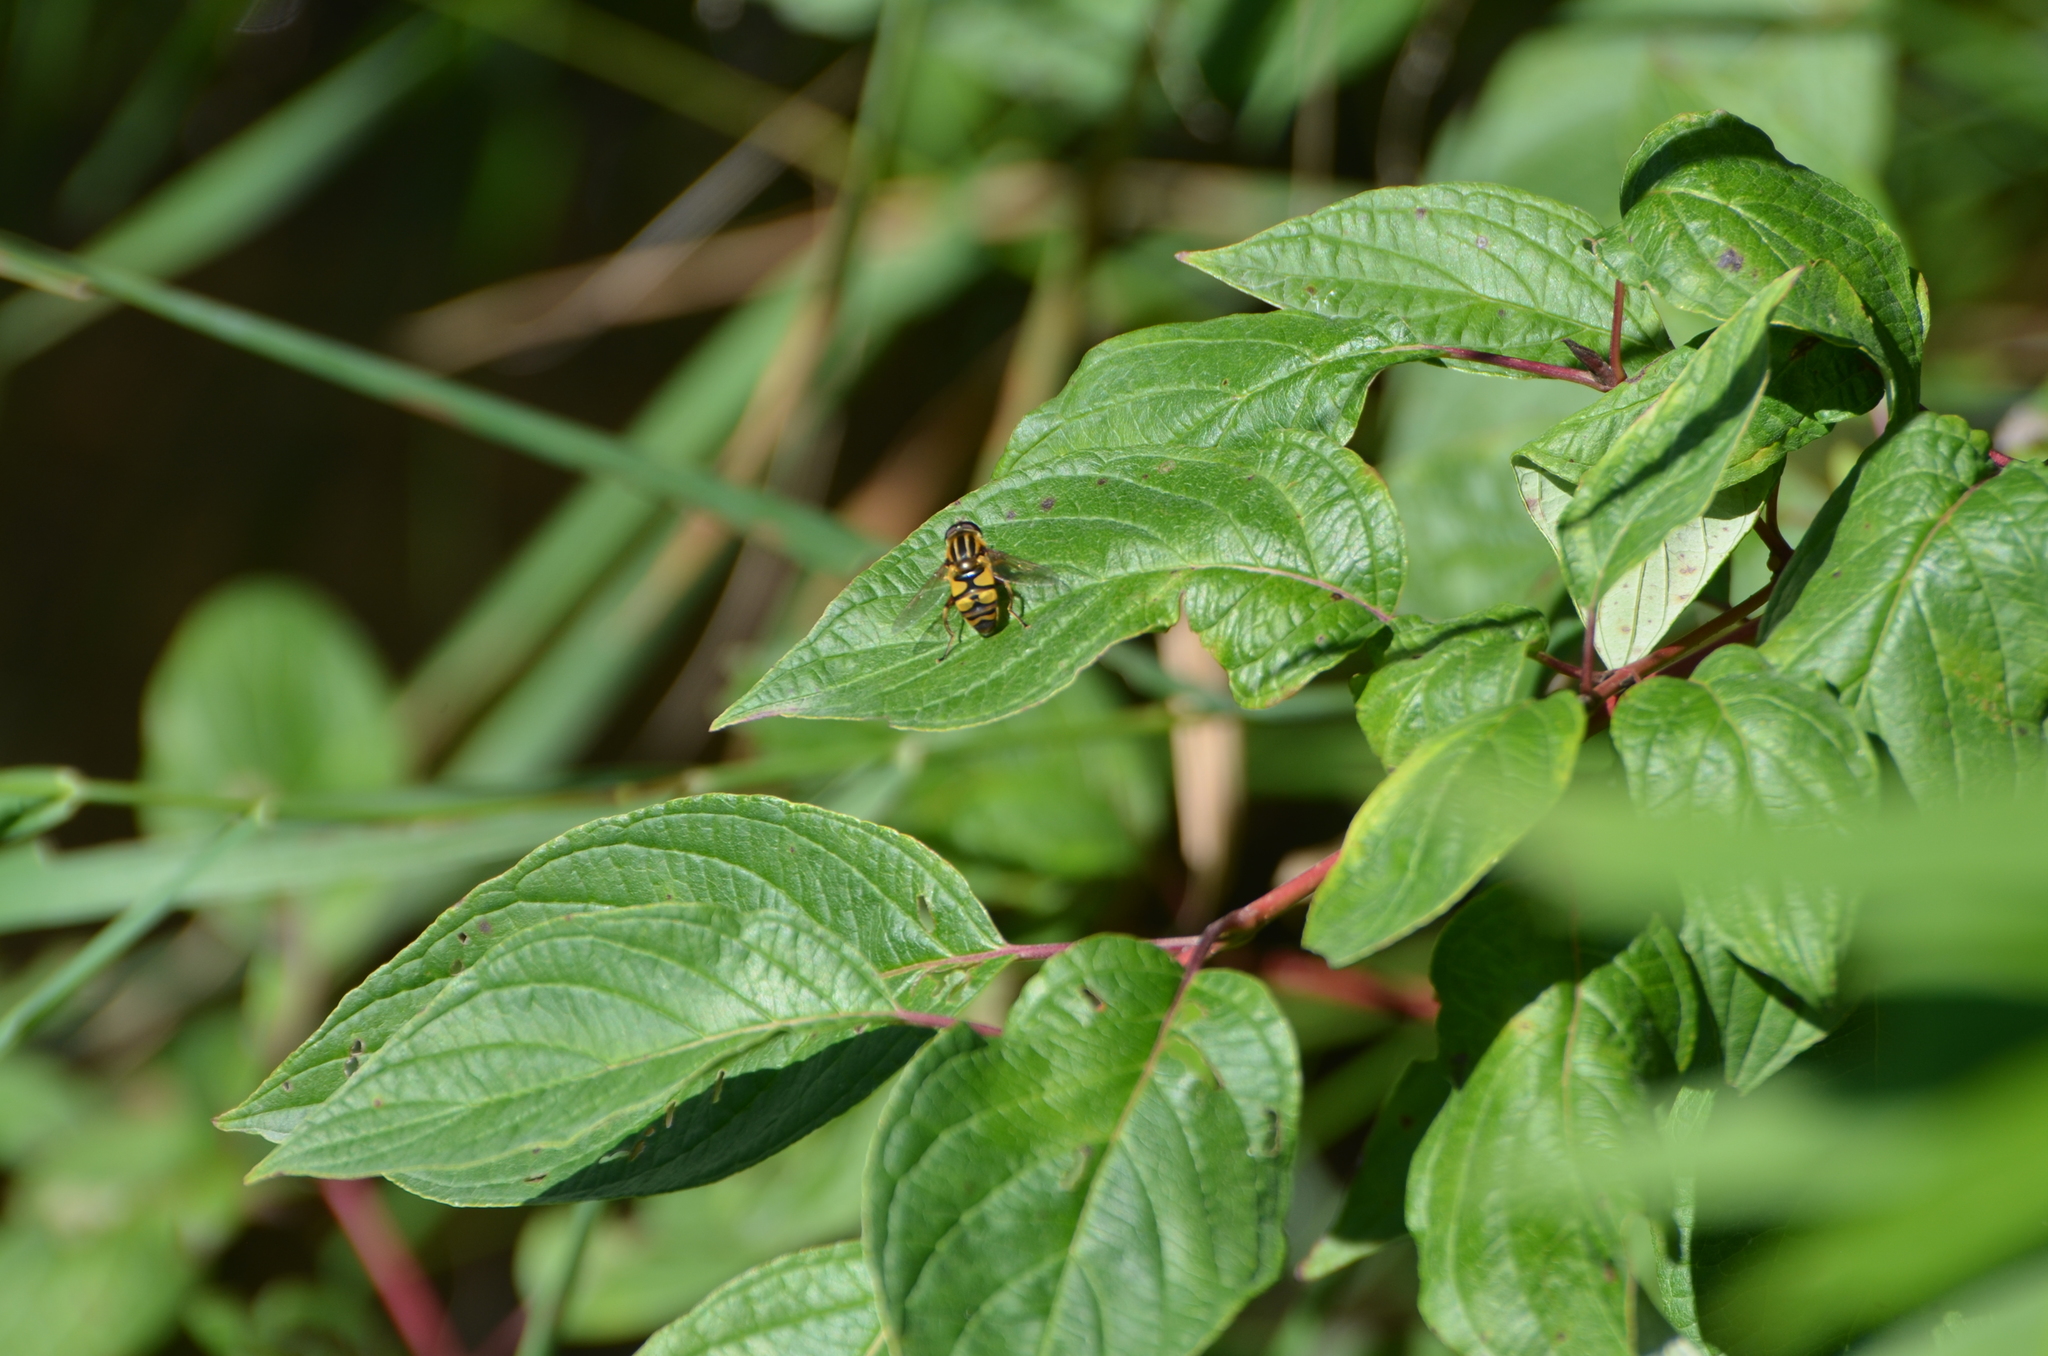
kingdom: Animalia
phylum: Arthropoda
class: Insecta
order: Diptera
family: Syrphidae
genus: Helophilus
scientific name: Helophilus fasciatus
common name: Narrow-headed marsh fly
